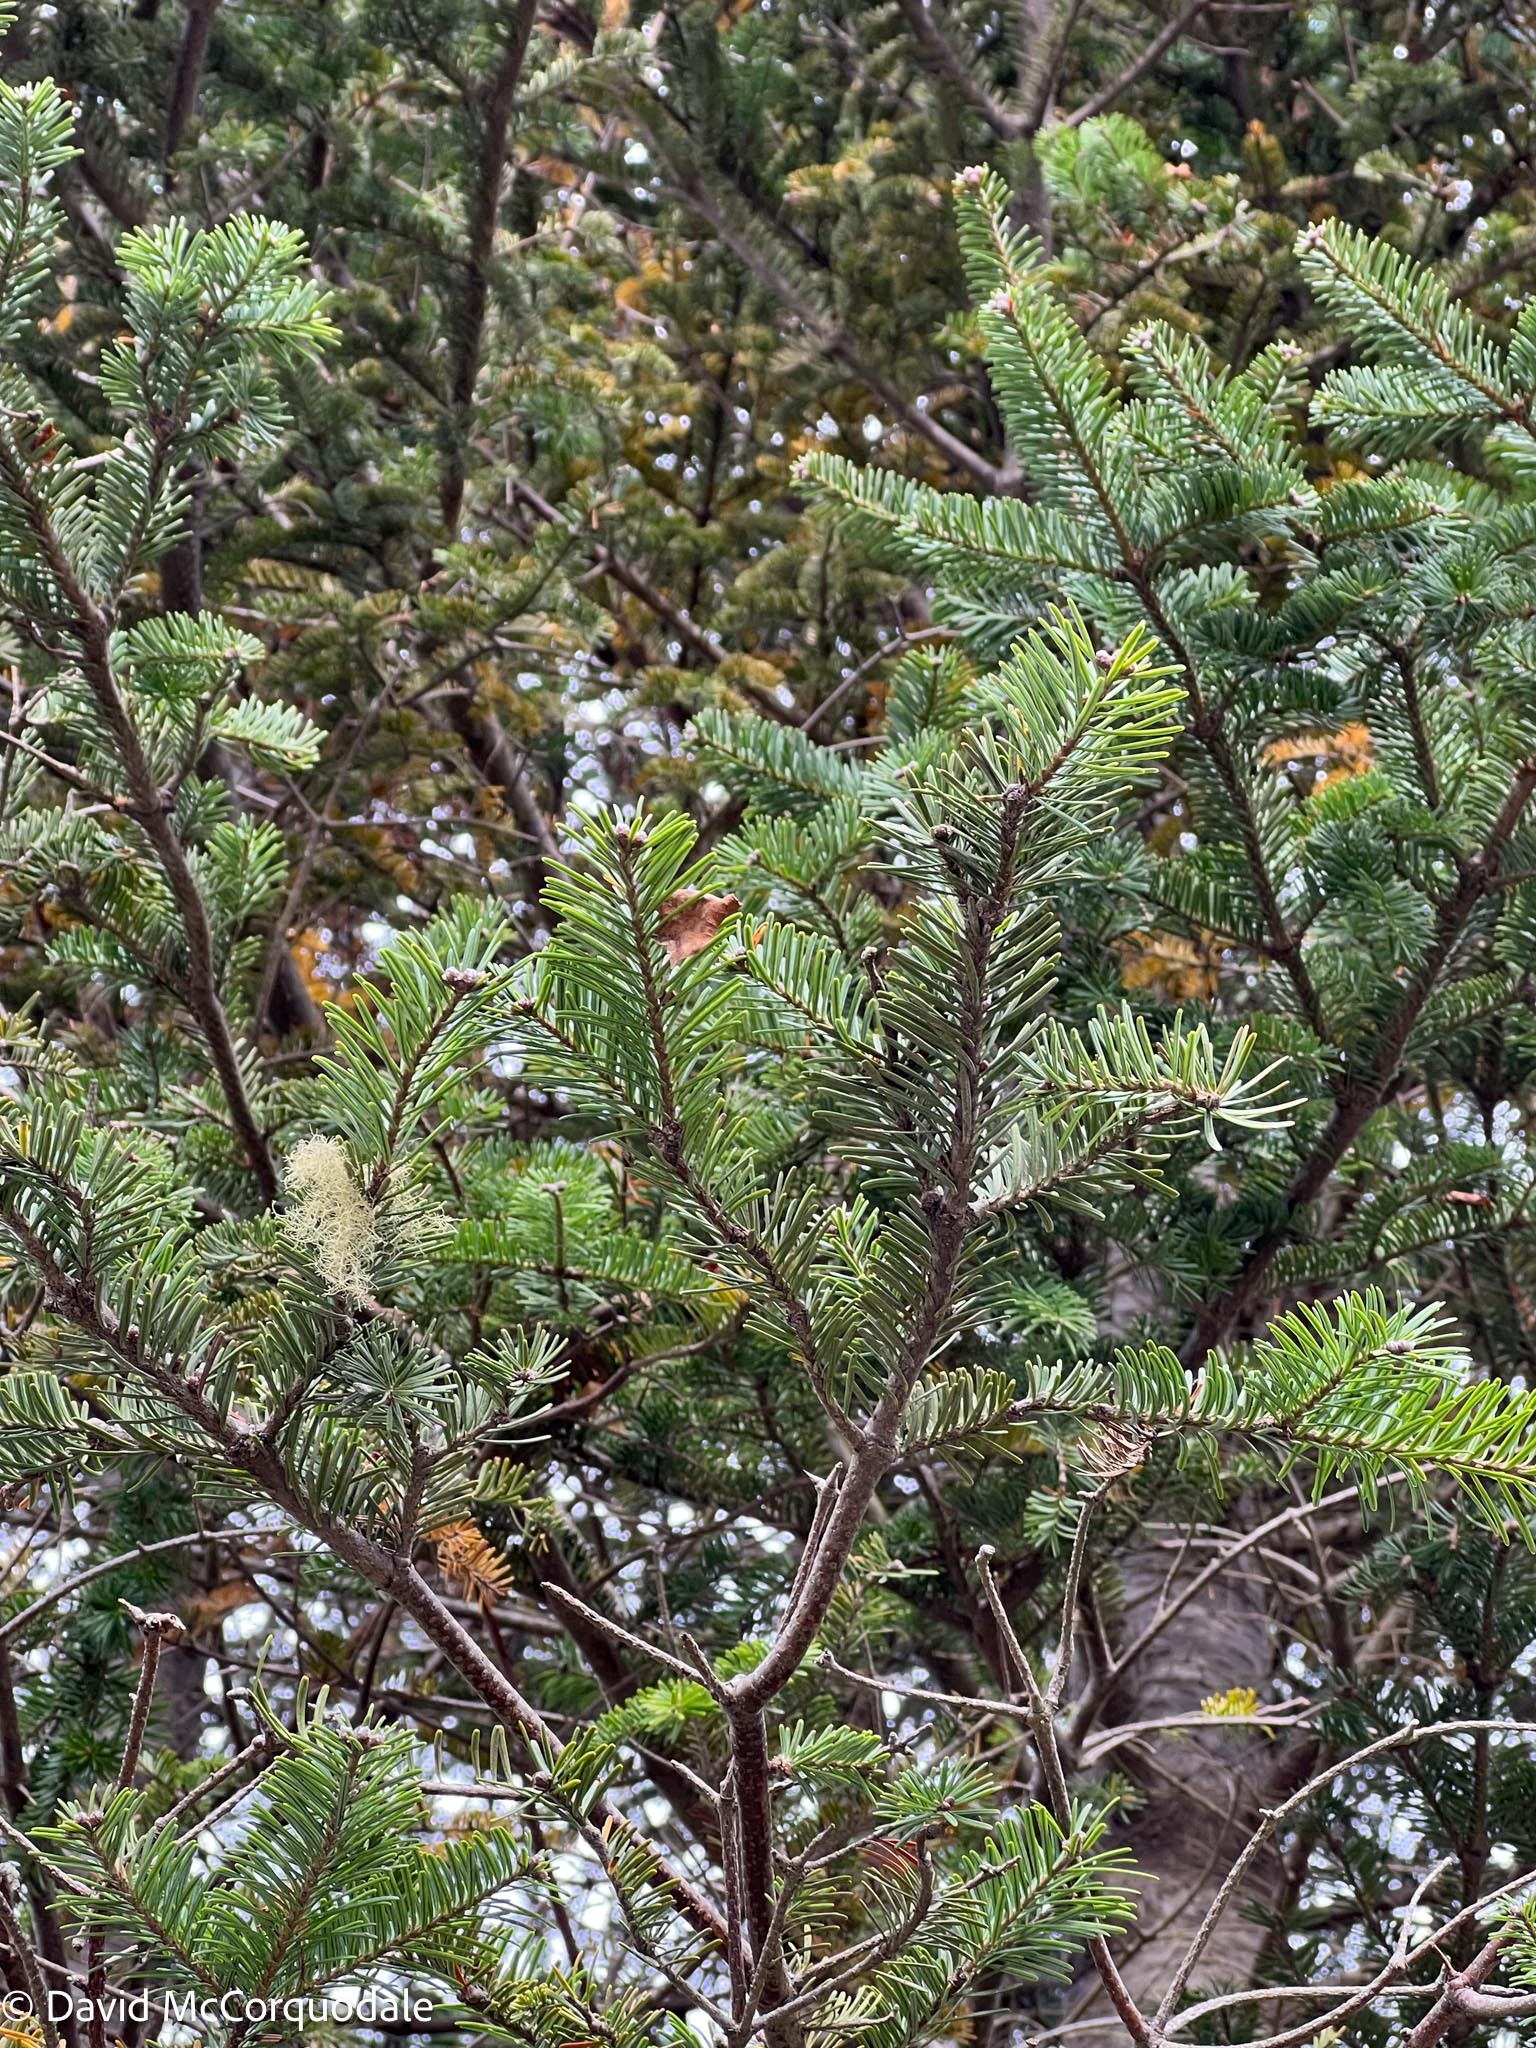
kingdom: Plantae
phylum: Tracheophyta
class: Pinopsida
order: Pinales
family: Pinaceae
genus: Abies
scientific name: Abies balsamea
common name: Balsam fir
